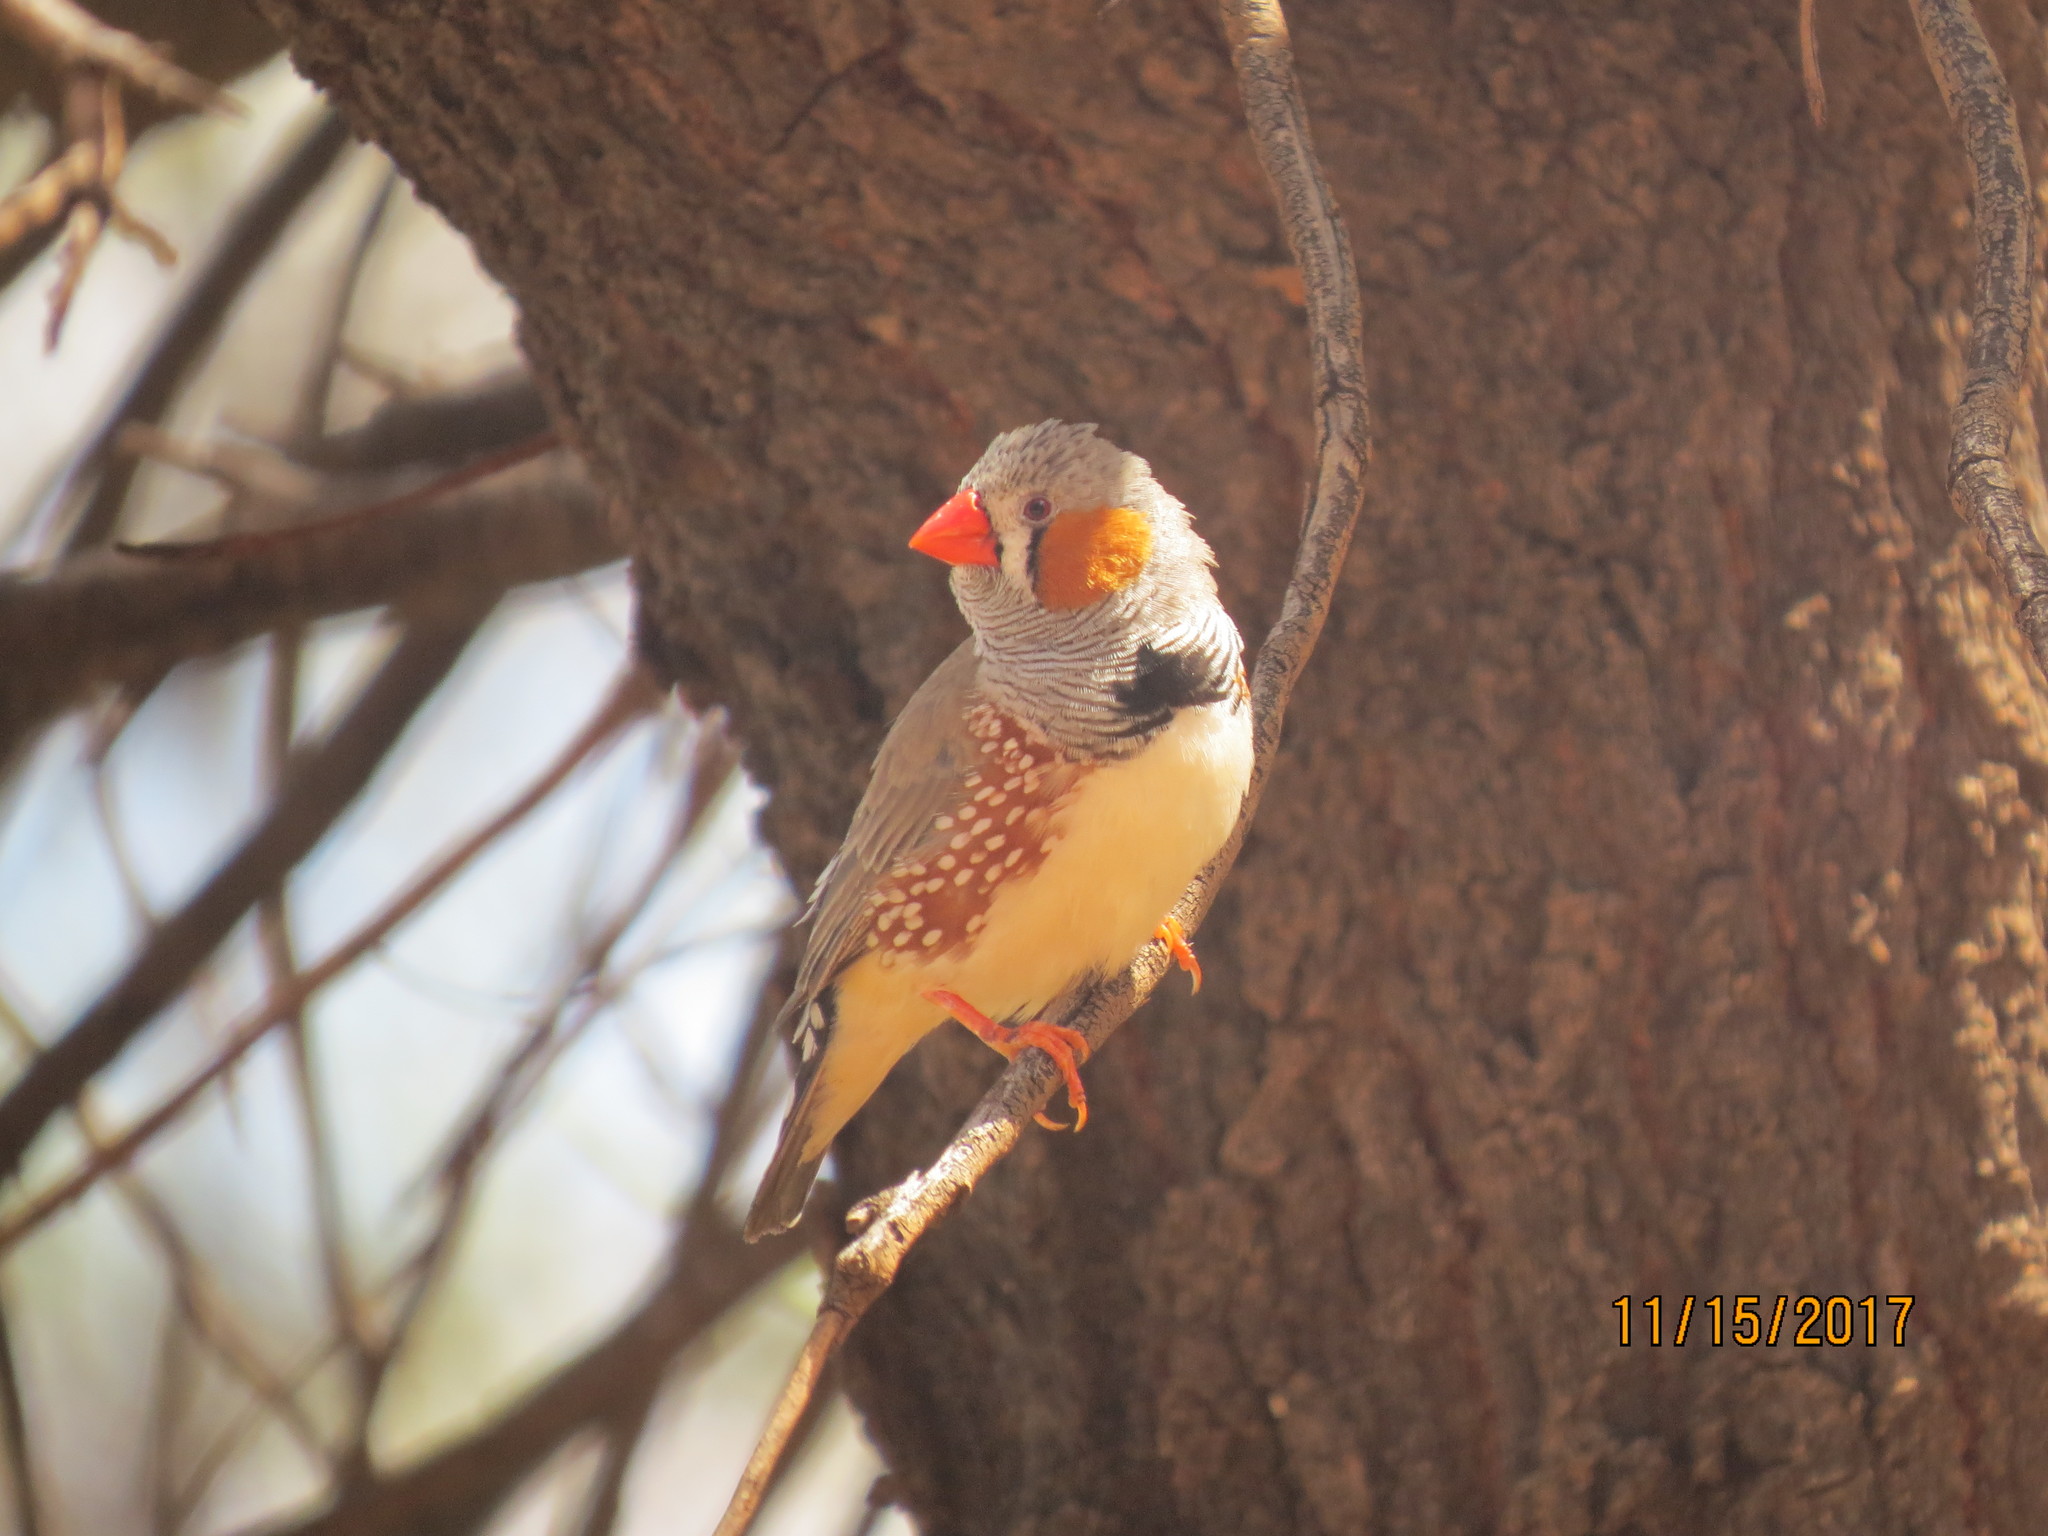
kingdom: Animalia
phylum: Chordata
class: Aves
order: Passeriformes
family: Estrildidae
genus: Taeniopygia
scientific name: Taeniopygia guttata
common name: Zebra finch
